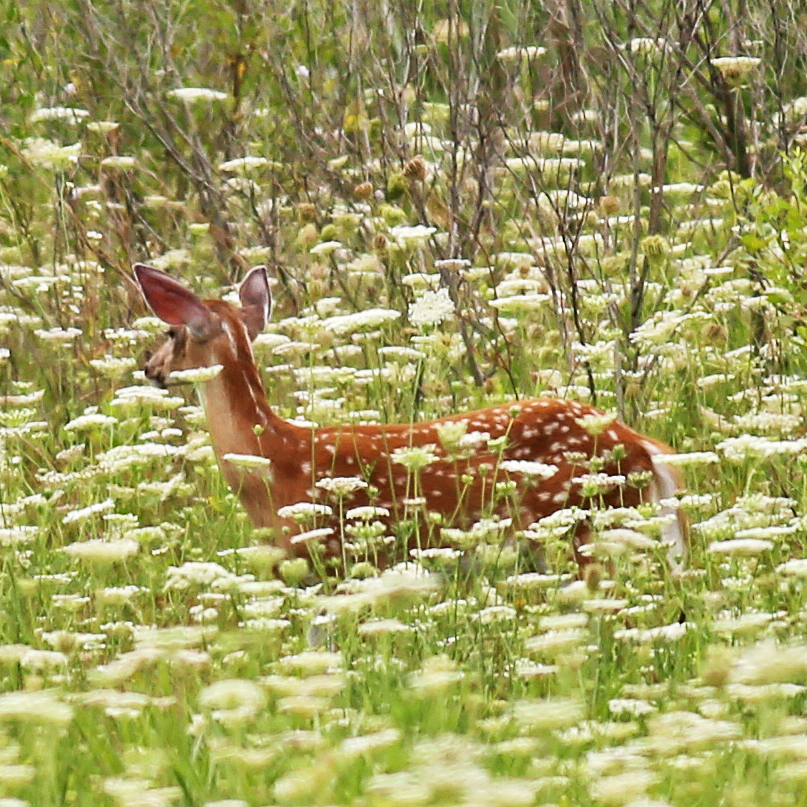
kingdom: Animalia
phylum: Chordata
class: Mammalia
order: Artiodactyla
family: Cervidae
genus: Odocoileus
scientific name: Odocoileus virginianus
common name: White-tailed deer
